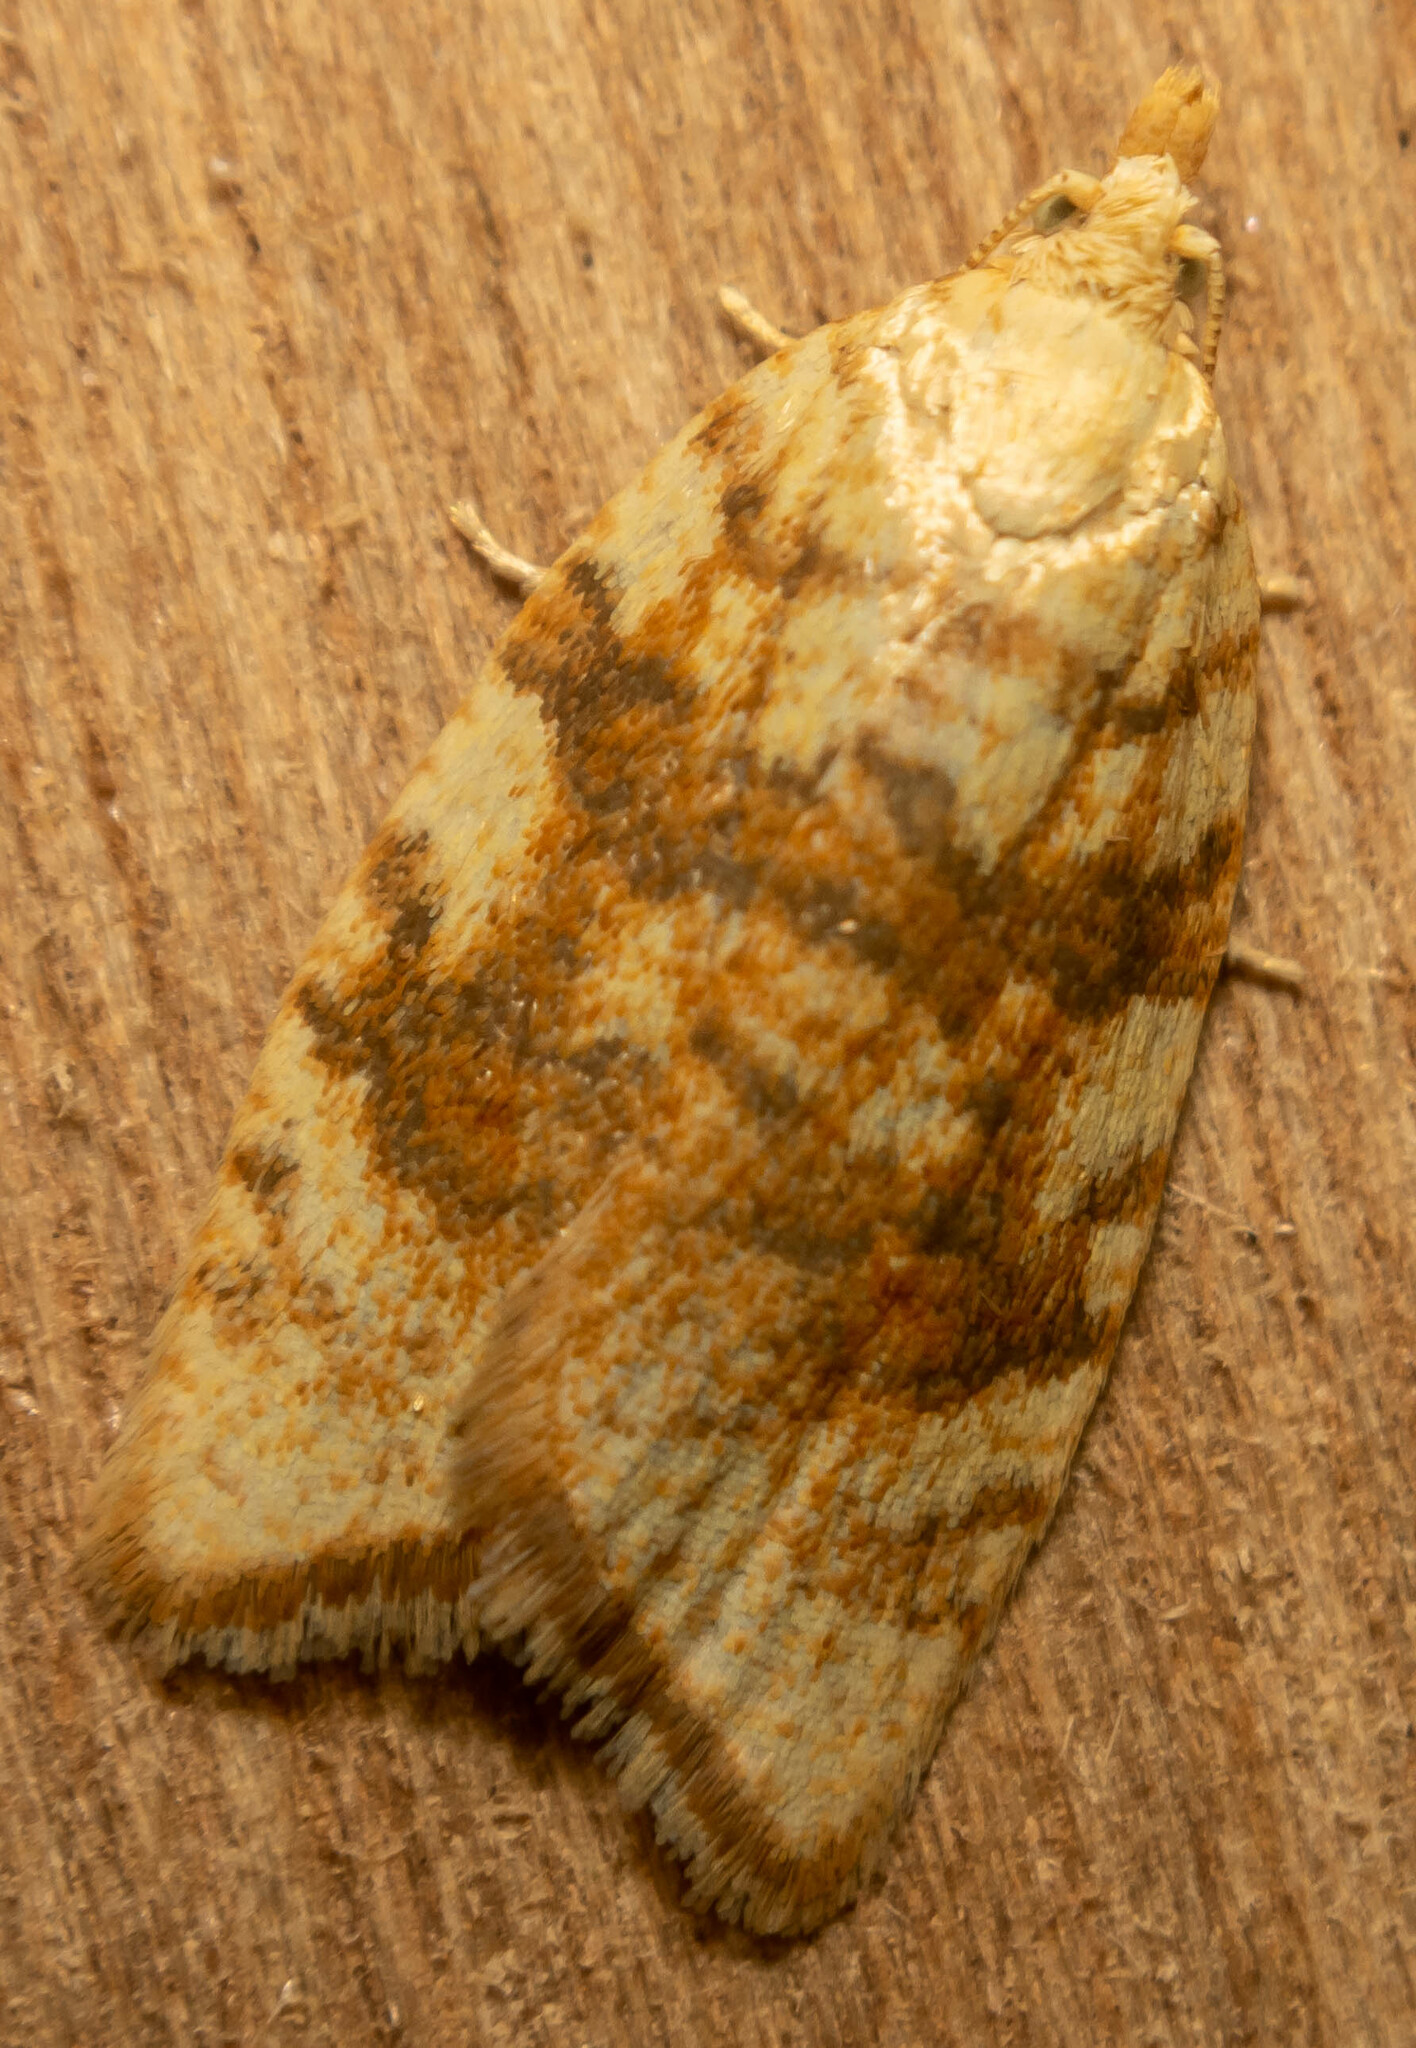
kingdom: Animalia
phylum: Arthropoda
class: Insecta
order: Lepidoptera
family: Tortricidae
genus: Aleimma
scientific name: Aleimma loeflingiana
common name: Yellow oak button
